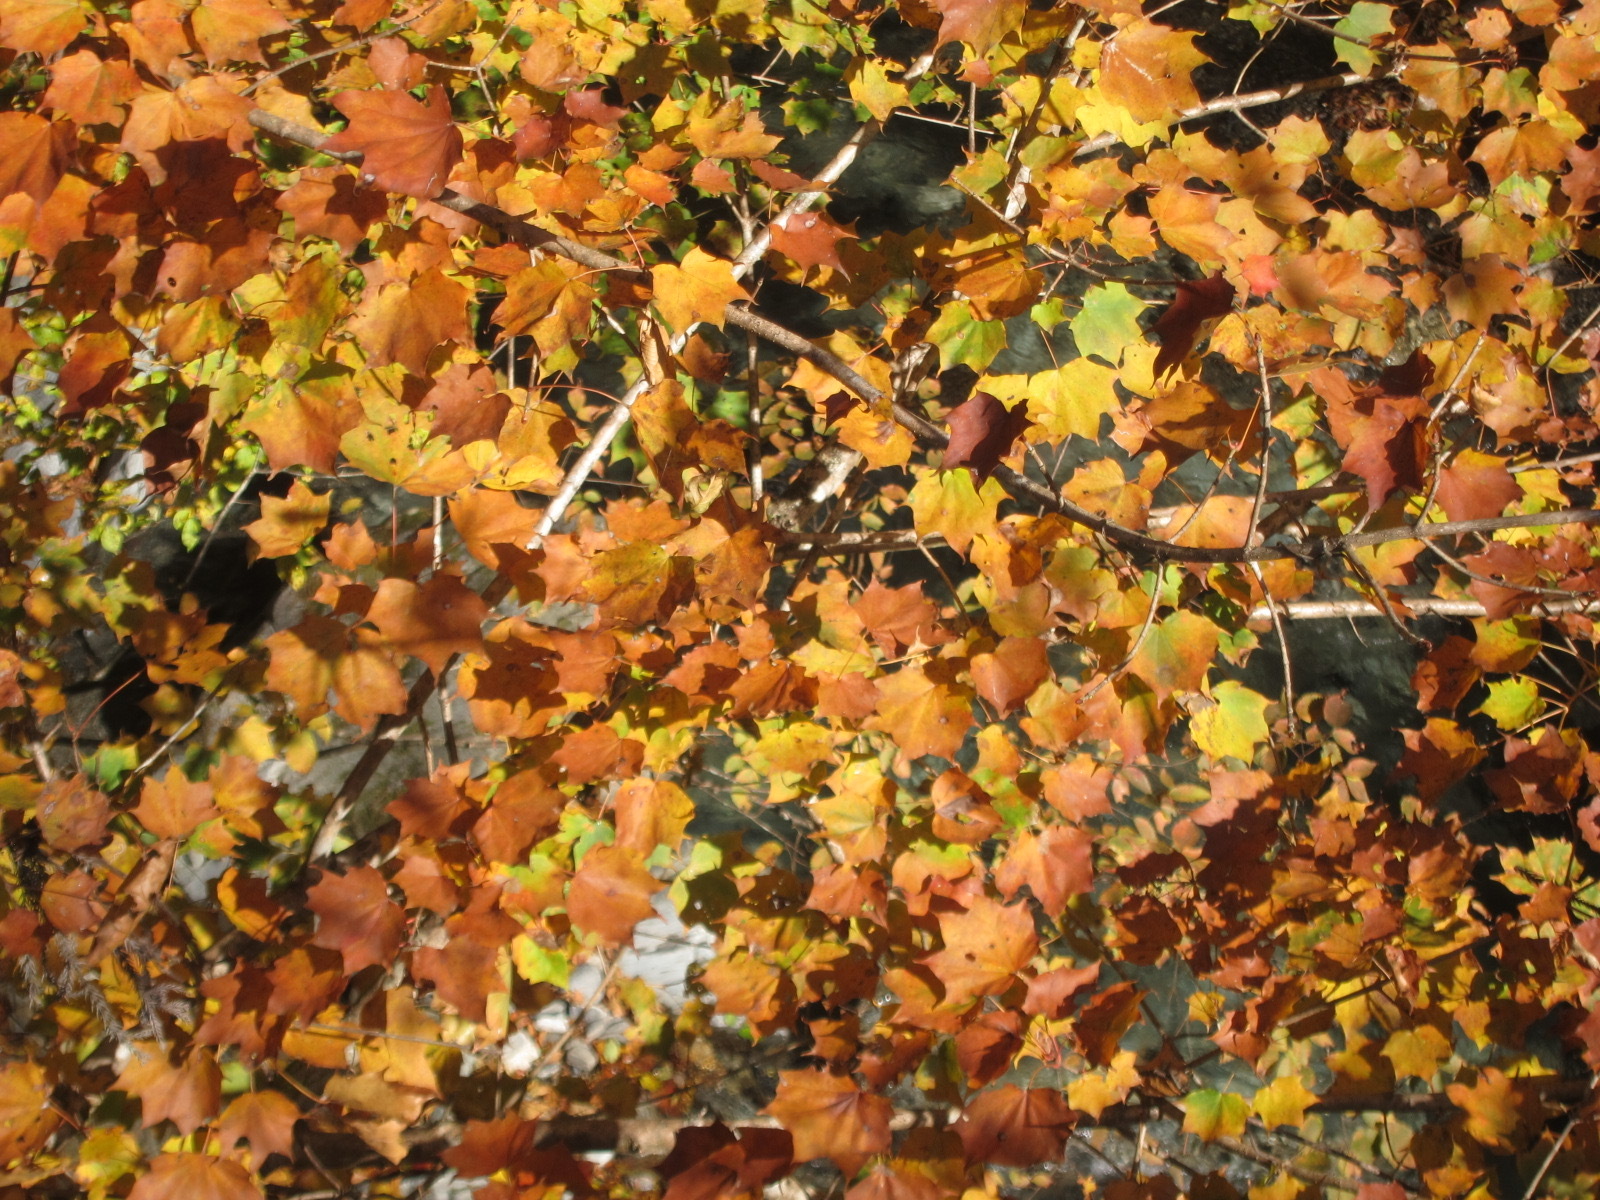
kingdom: Plantae
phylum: Tracheophyta
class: Magnoliopsida
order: Sapindales
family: Sapindaceae
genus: Acer
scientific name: Acer pictum
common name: The painted maple
